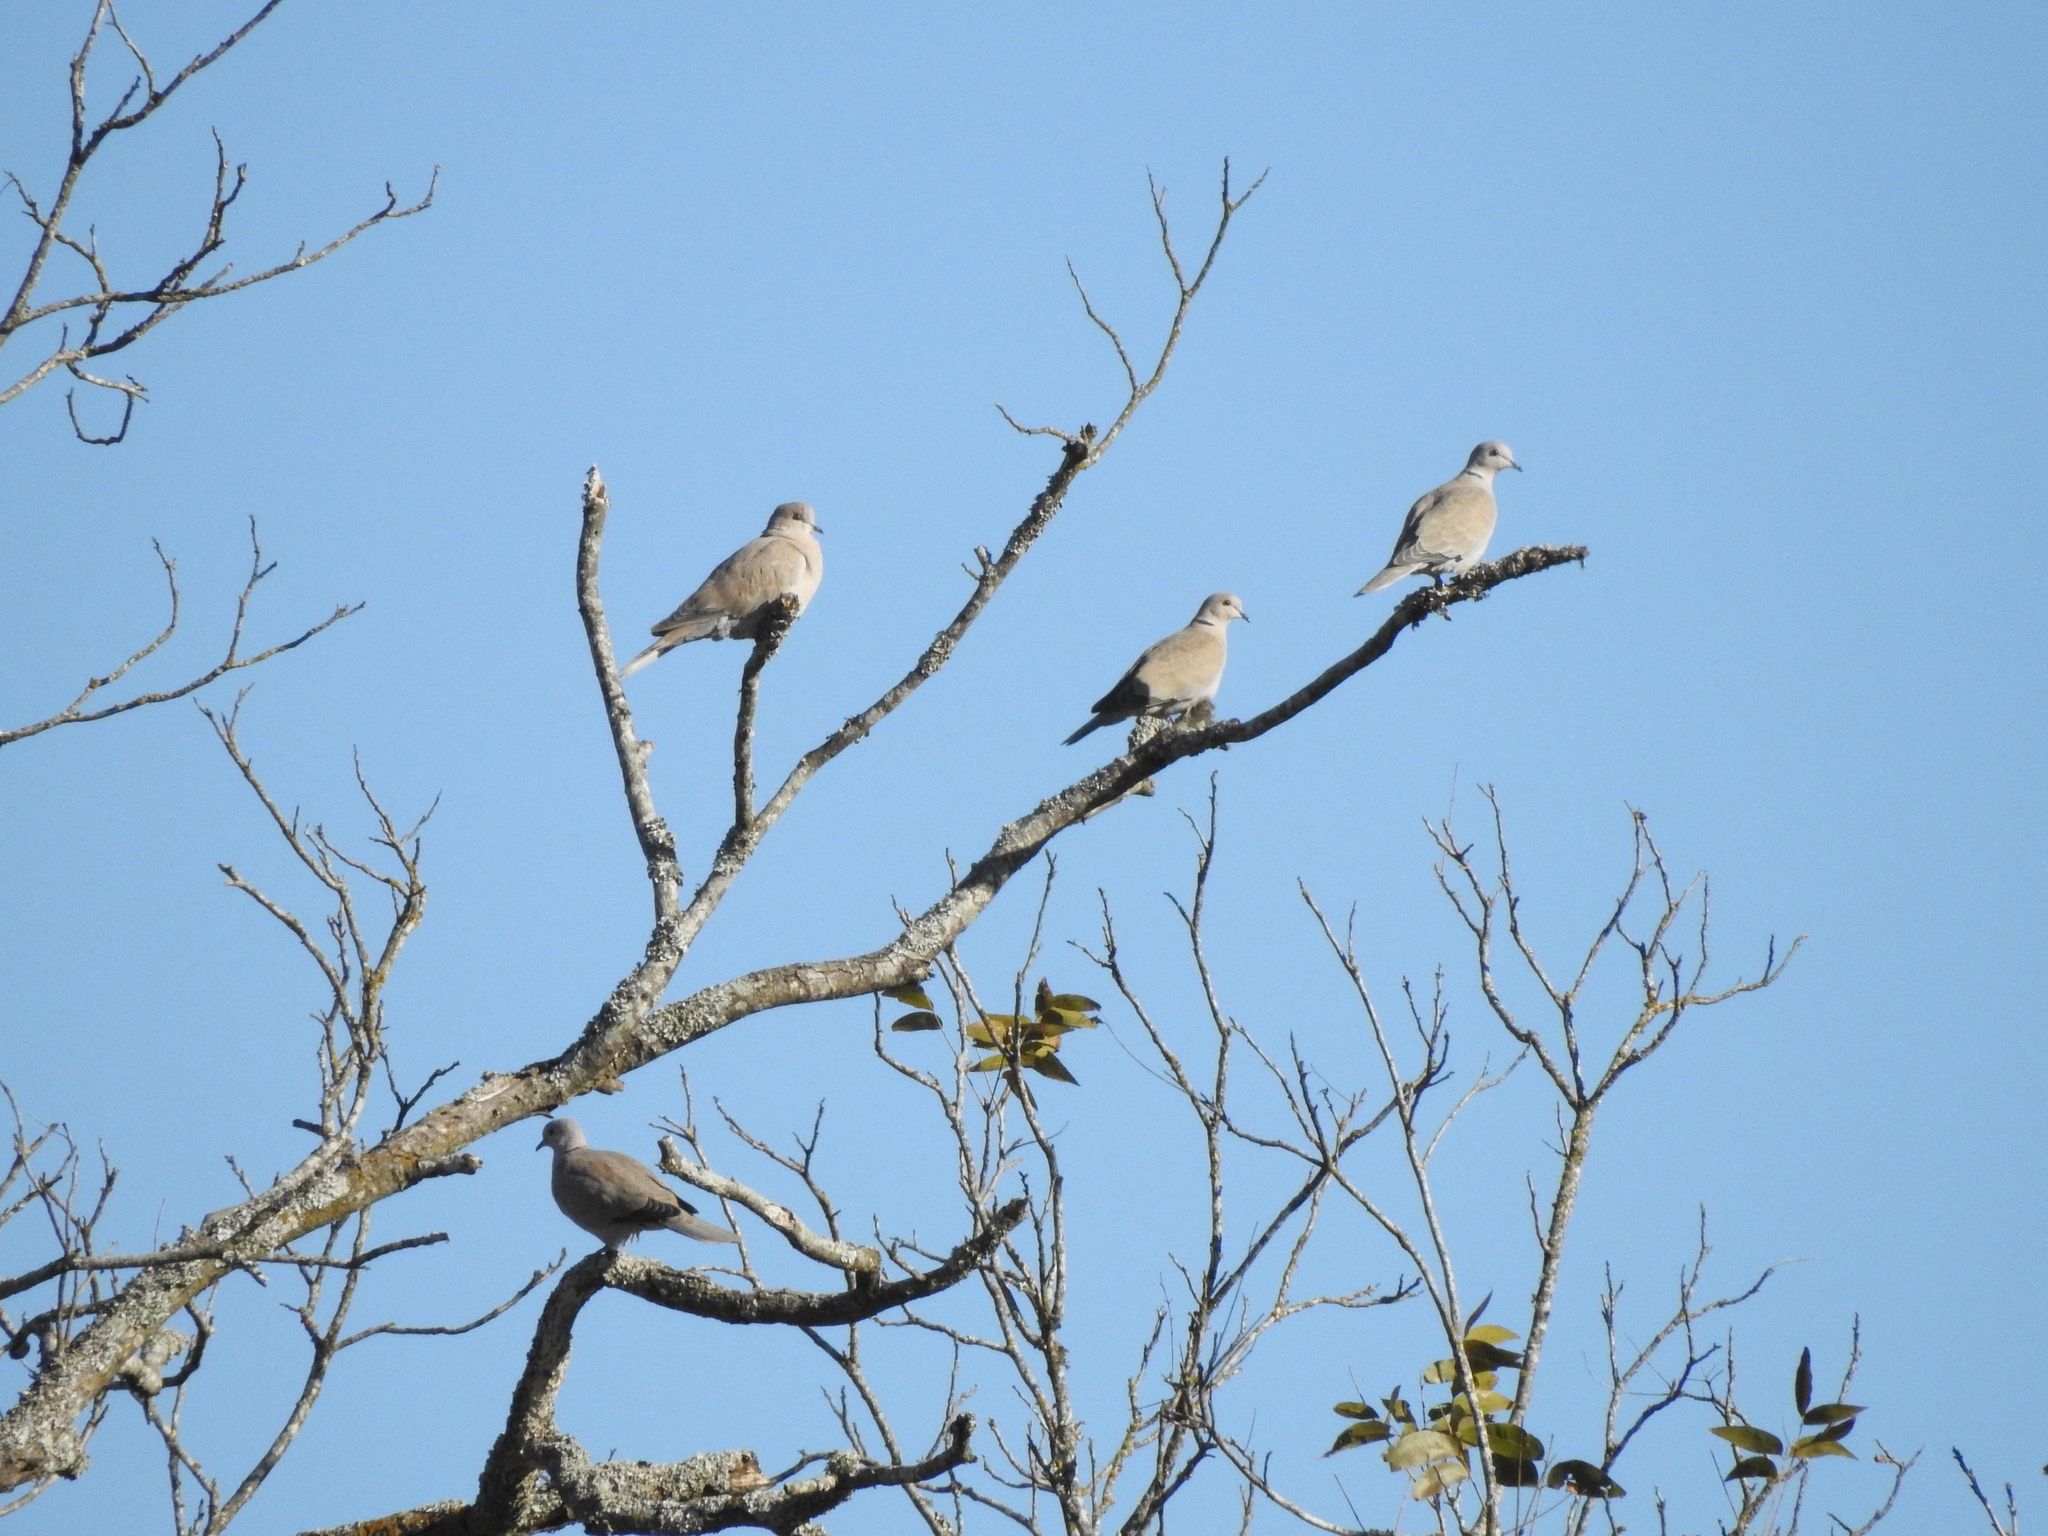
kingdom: Animalia
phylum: Chordata
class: Aves
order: Columbiformes
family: Columbidae
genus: Streptopelia
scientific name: Streptopelia decaocto
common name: Eurasian collared dove
